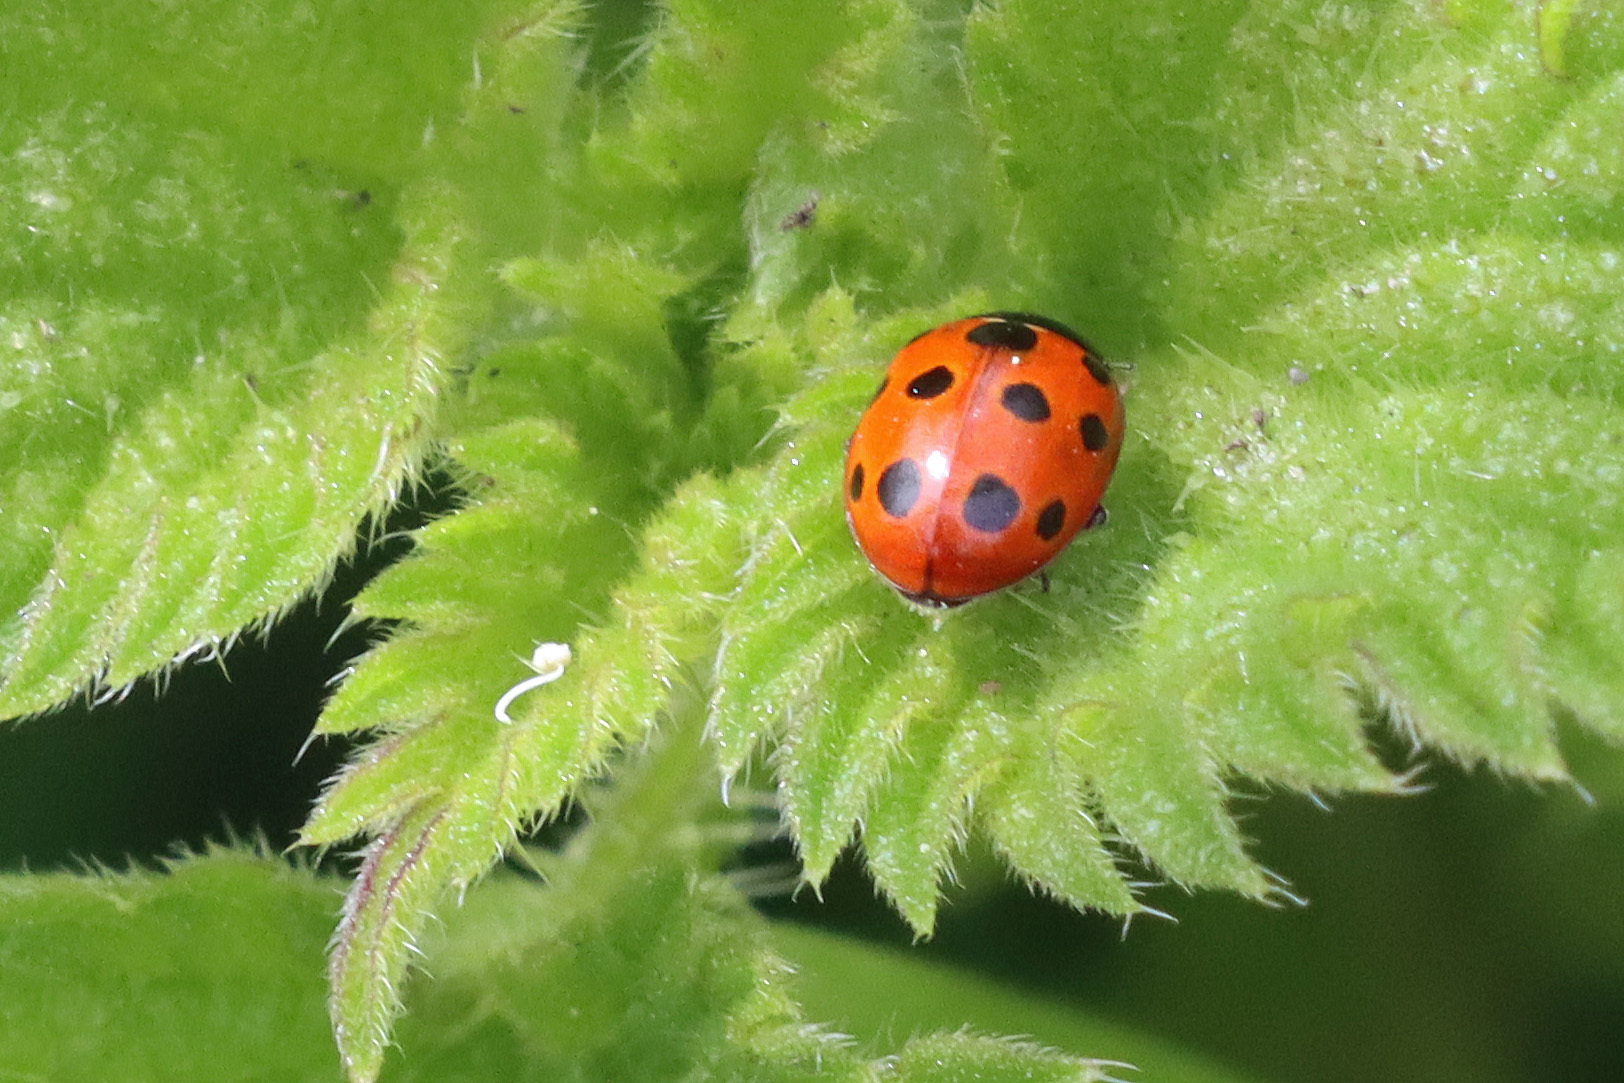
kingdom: Animalia
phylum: Arthropoda
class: Insecta
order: Coleoptera
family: Coccinellidae
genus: Coccinella
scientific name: Coccinella undecimpunctata
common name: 11-spot ladybird
